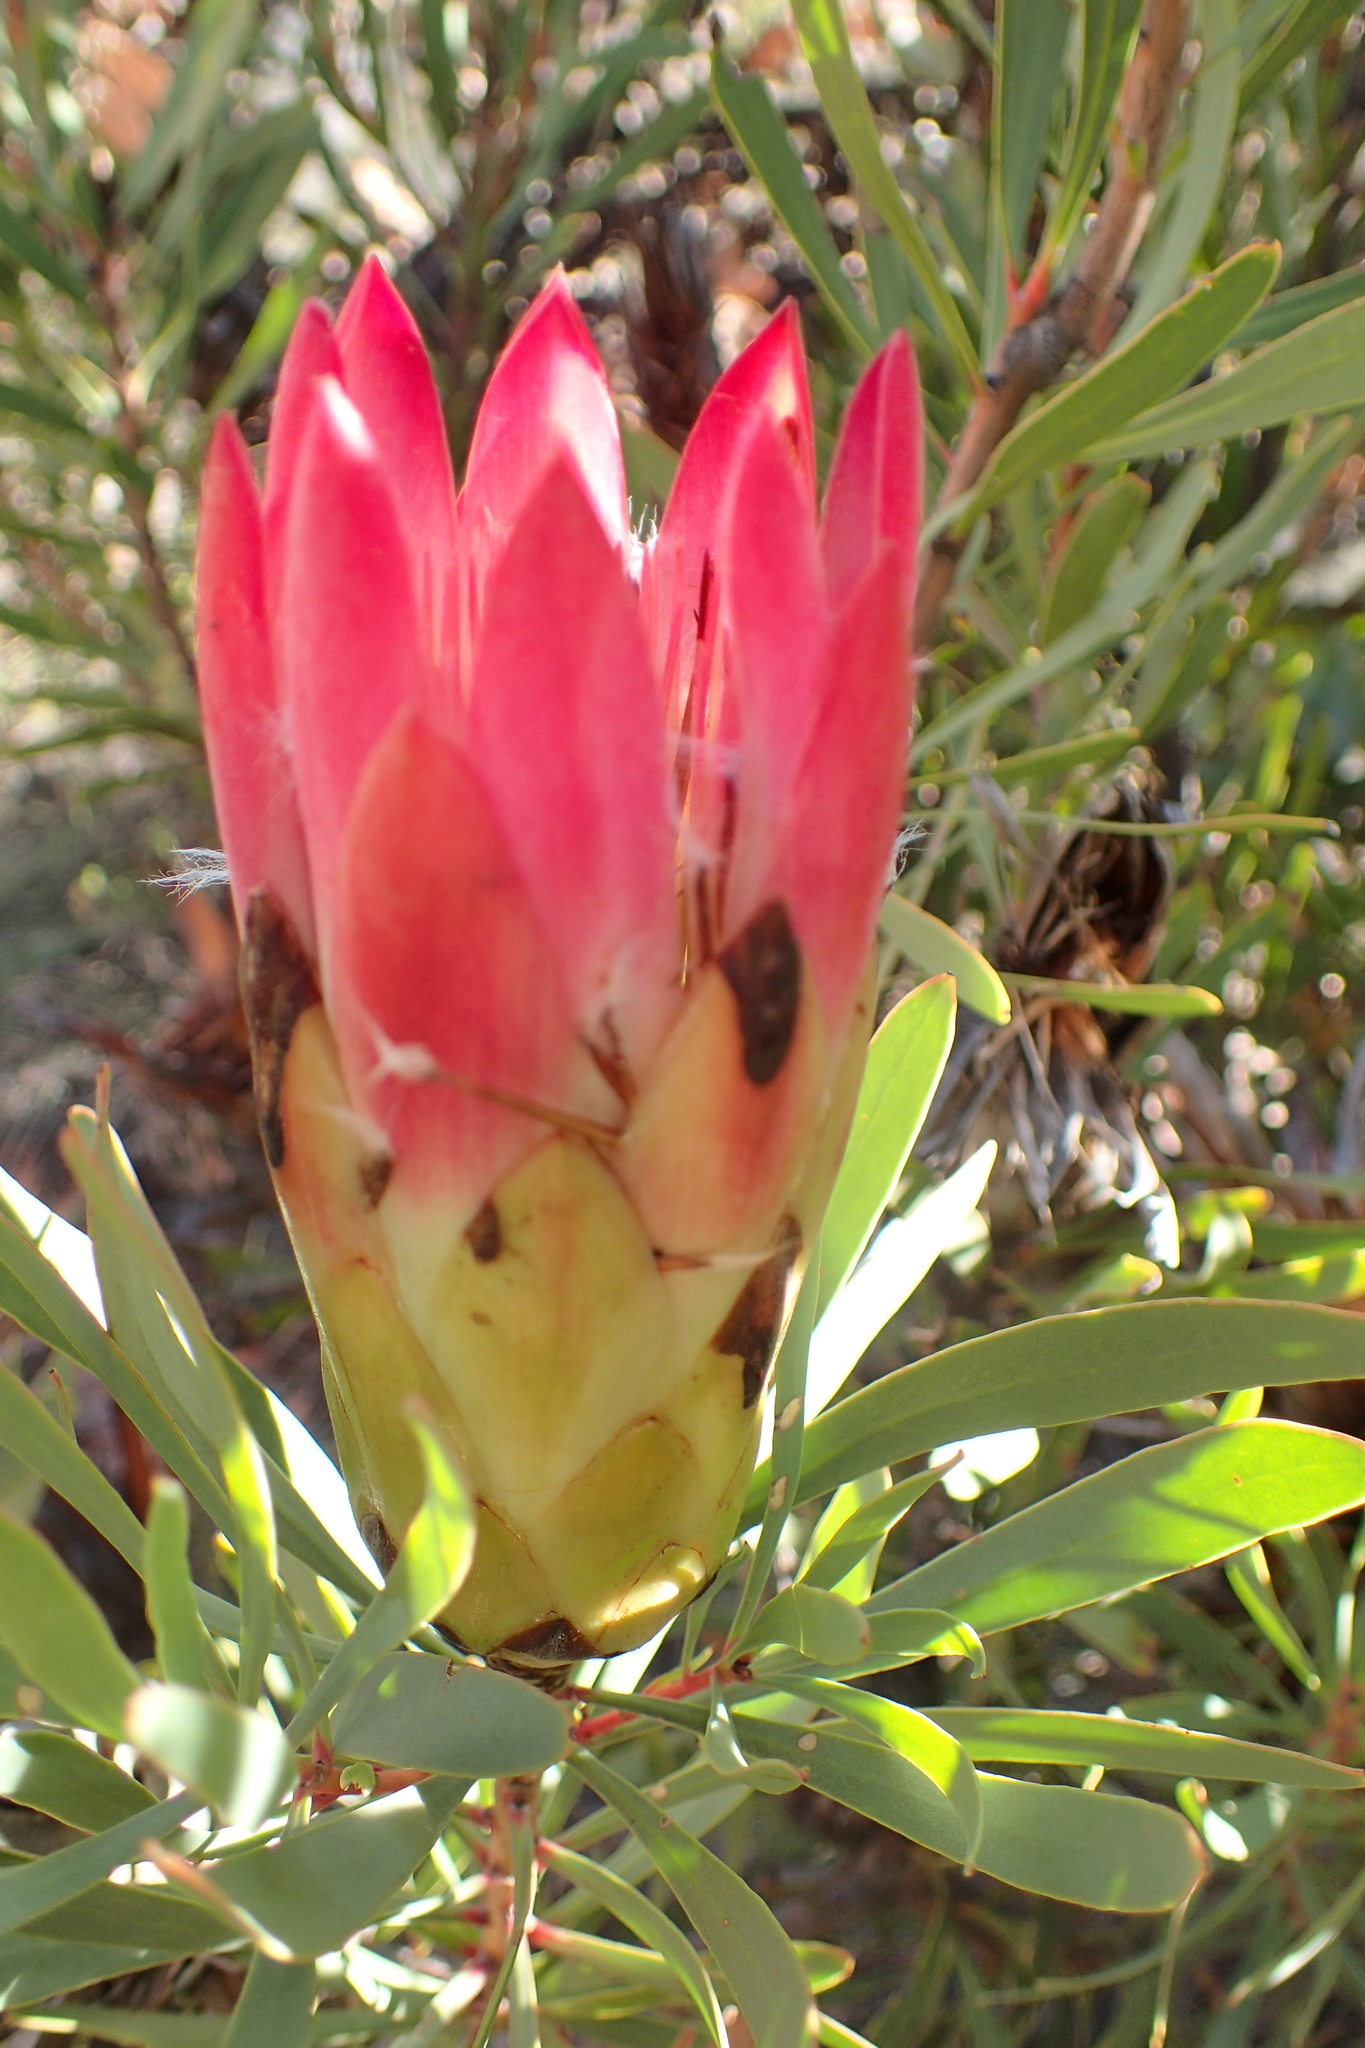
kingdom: Plantae
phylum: Tracheophyta
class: Magnoliopsida
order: Proteales
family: Proteaceae
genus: Protea
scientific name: Protea repens
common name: Sugarbush
